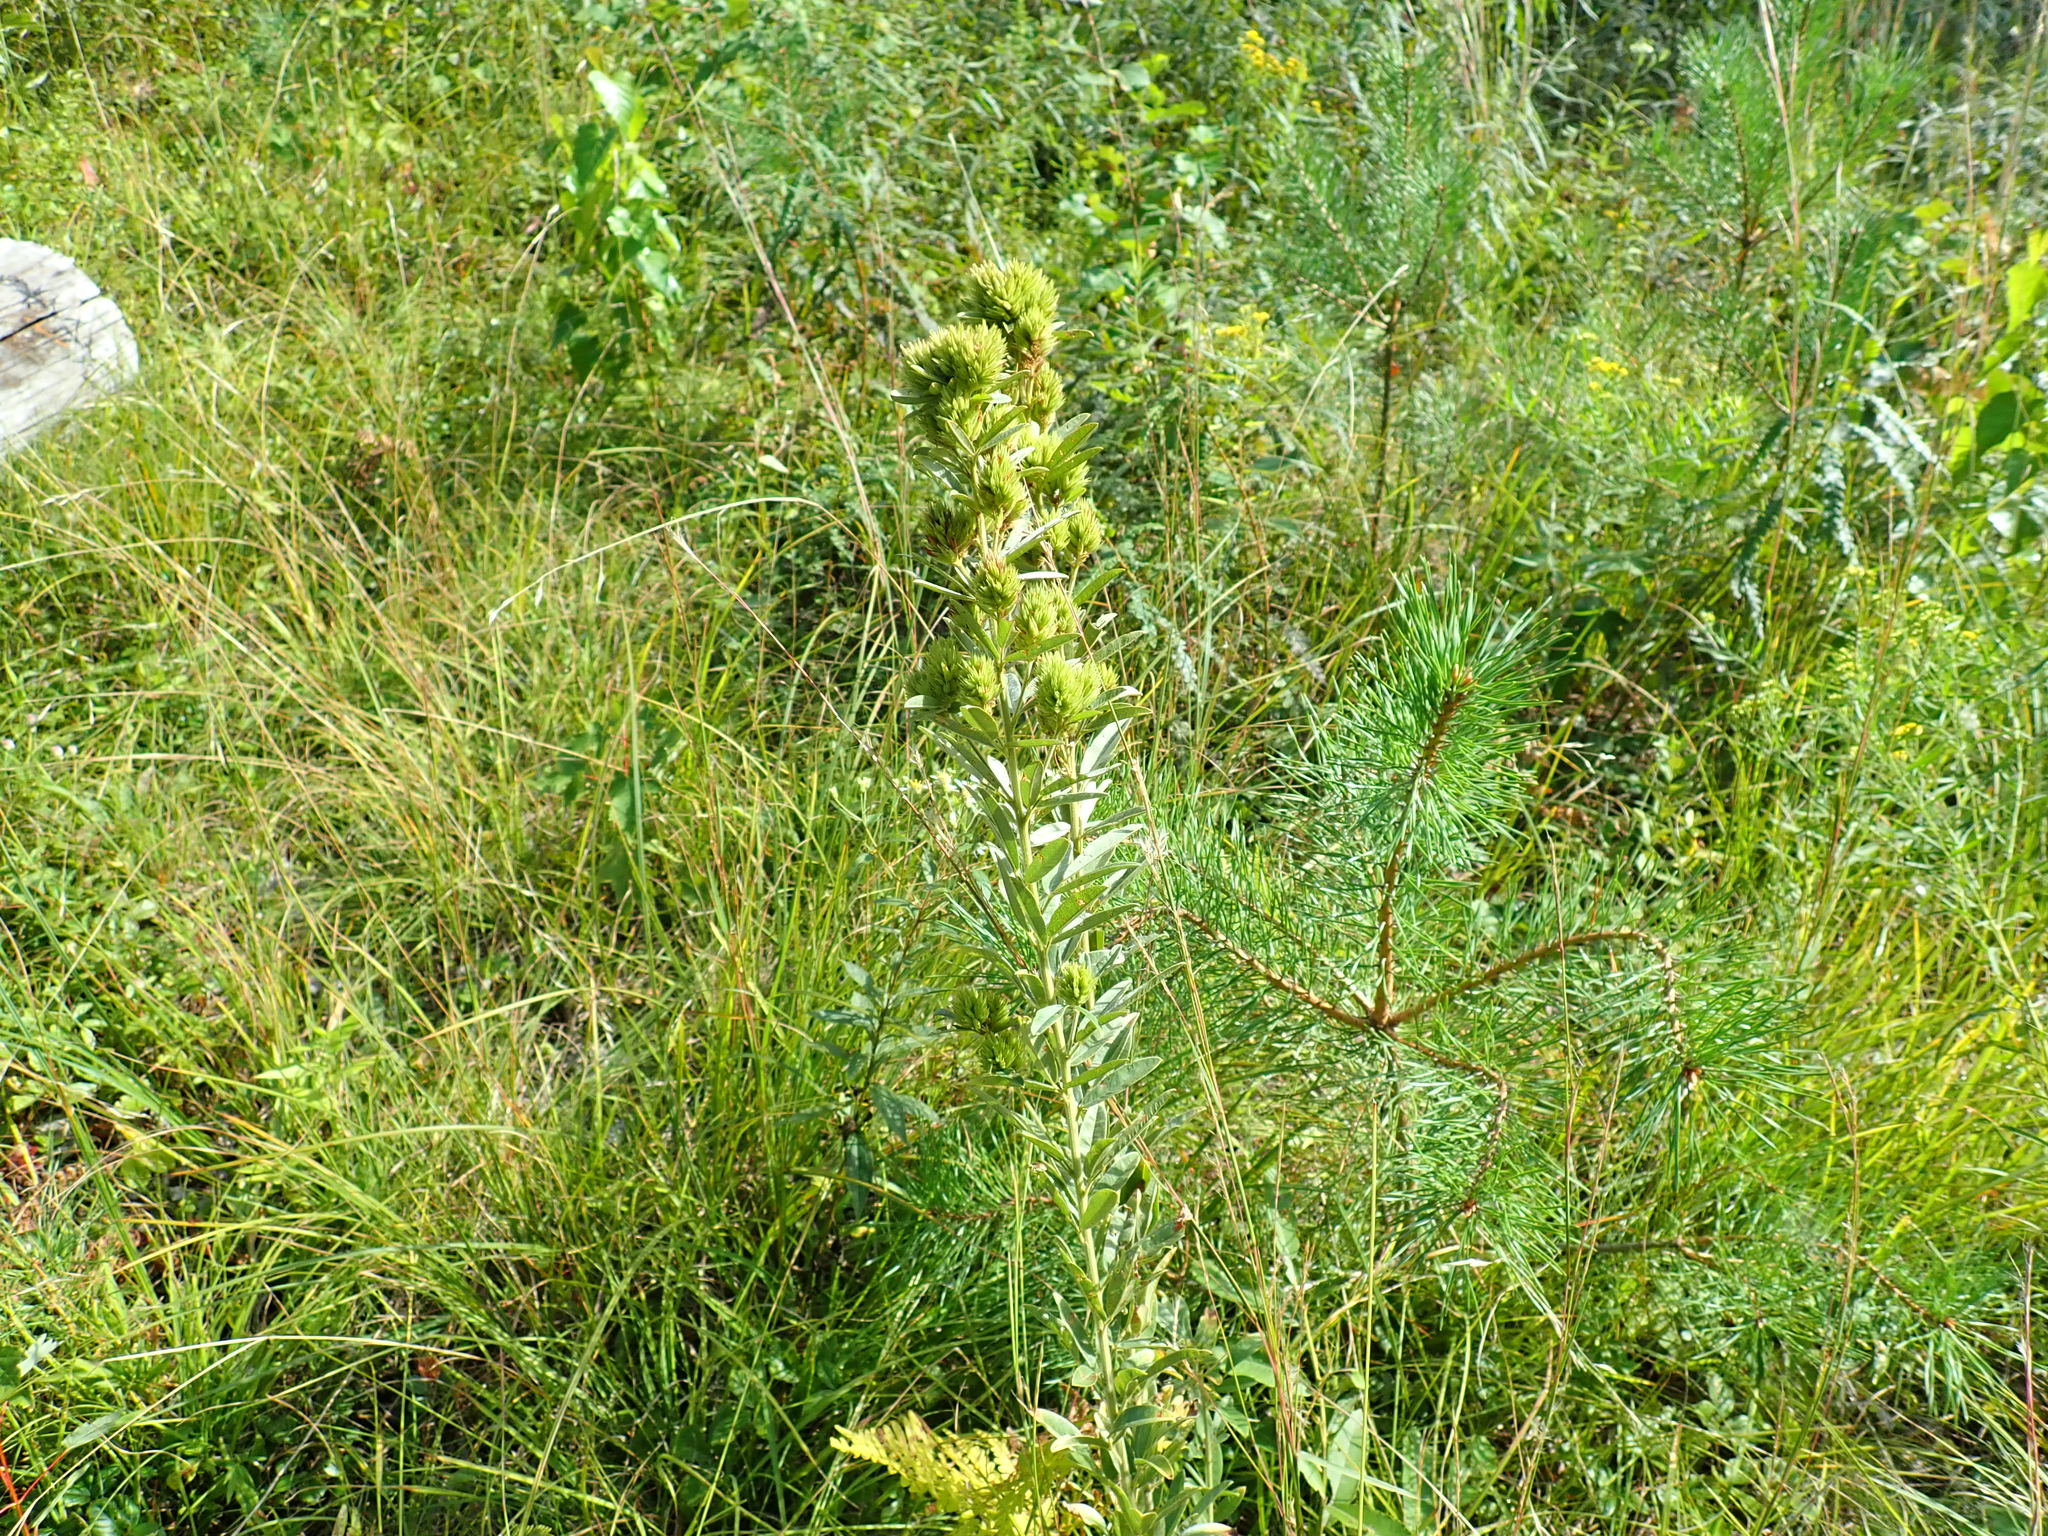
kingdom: Plantae
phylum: Tracheophyta
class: Magnoliopsida
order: Fabales
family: Fabaceae
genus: Lespedeza
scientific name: Lespedeza capitata
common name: Dusty clover
